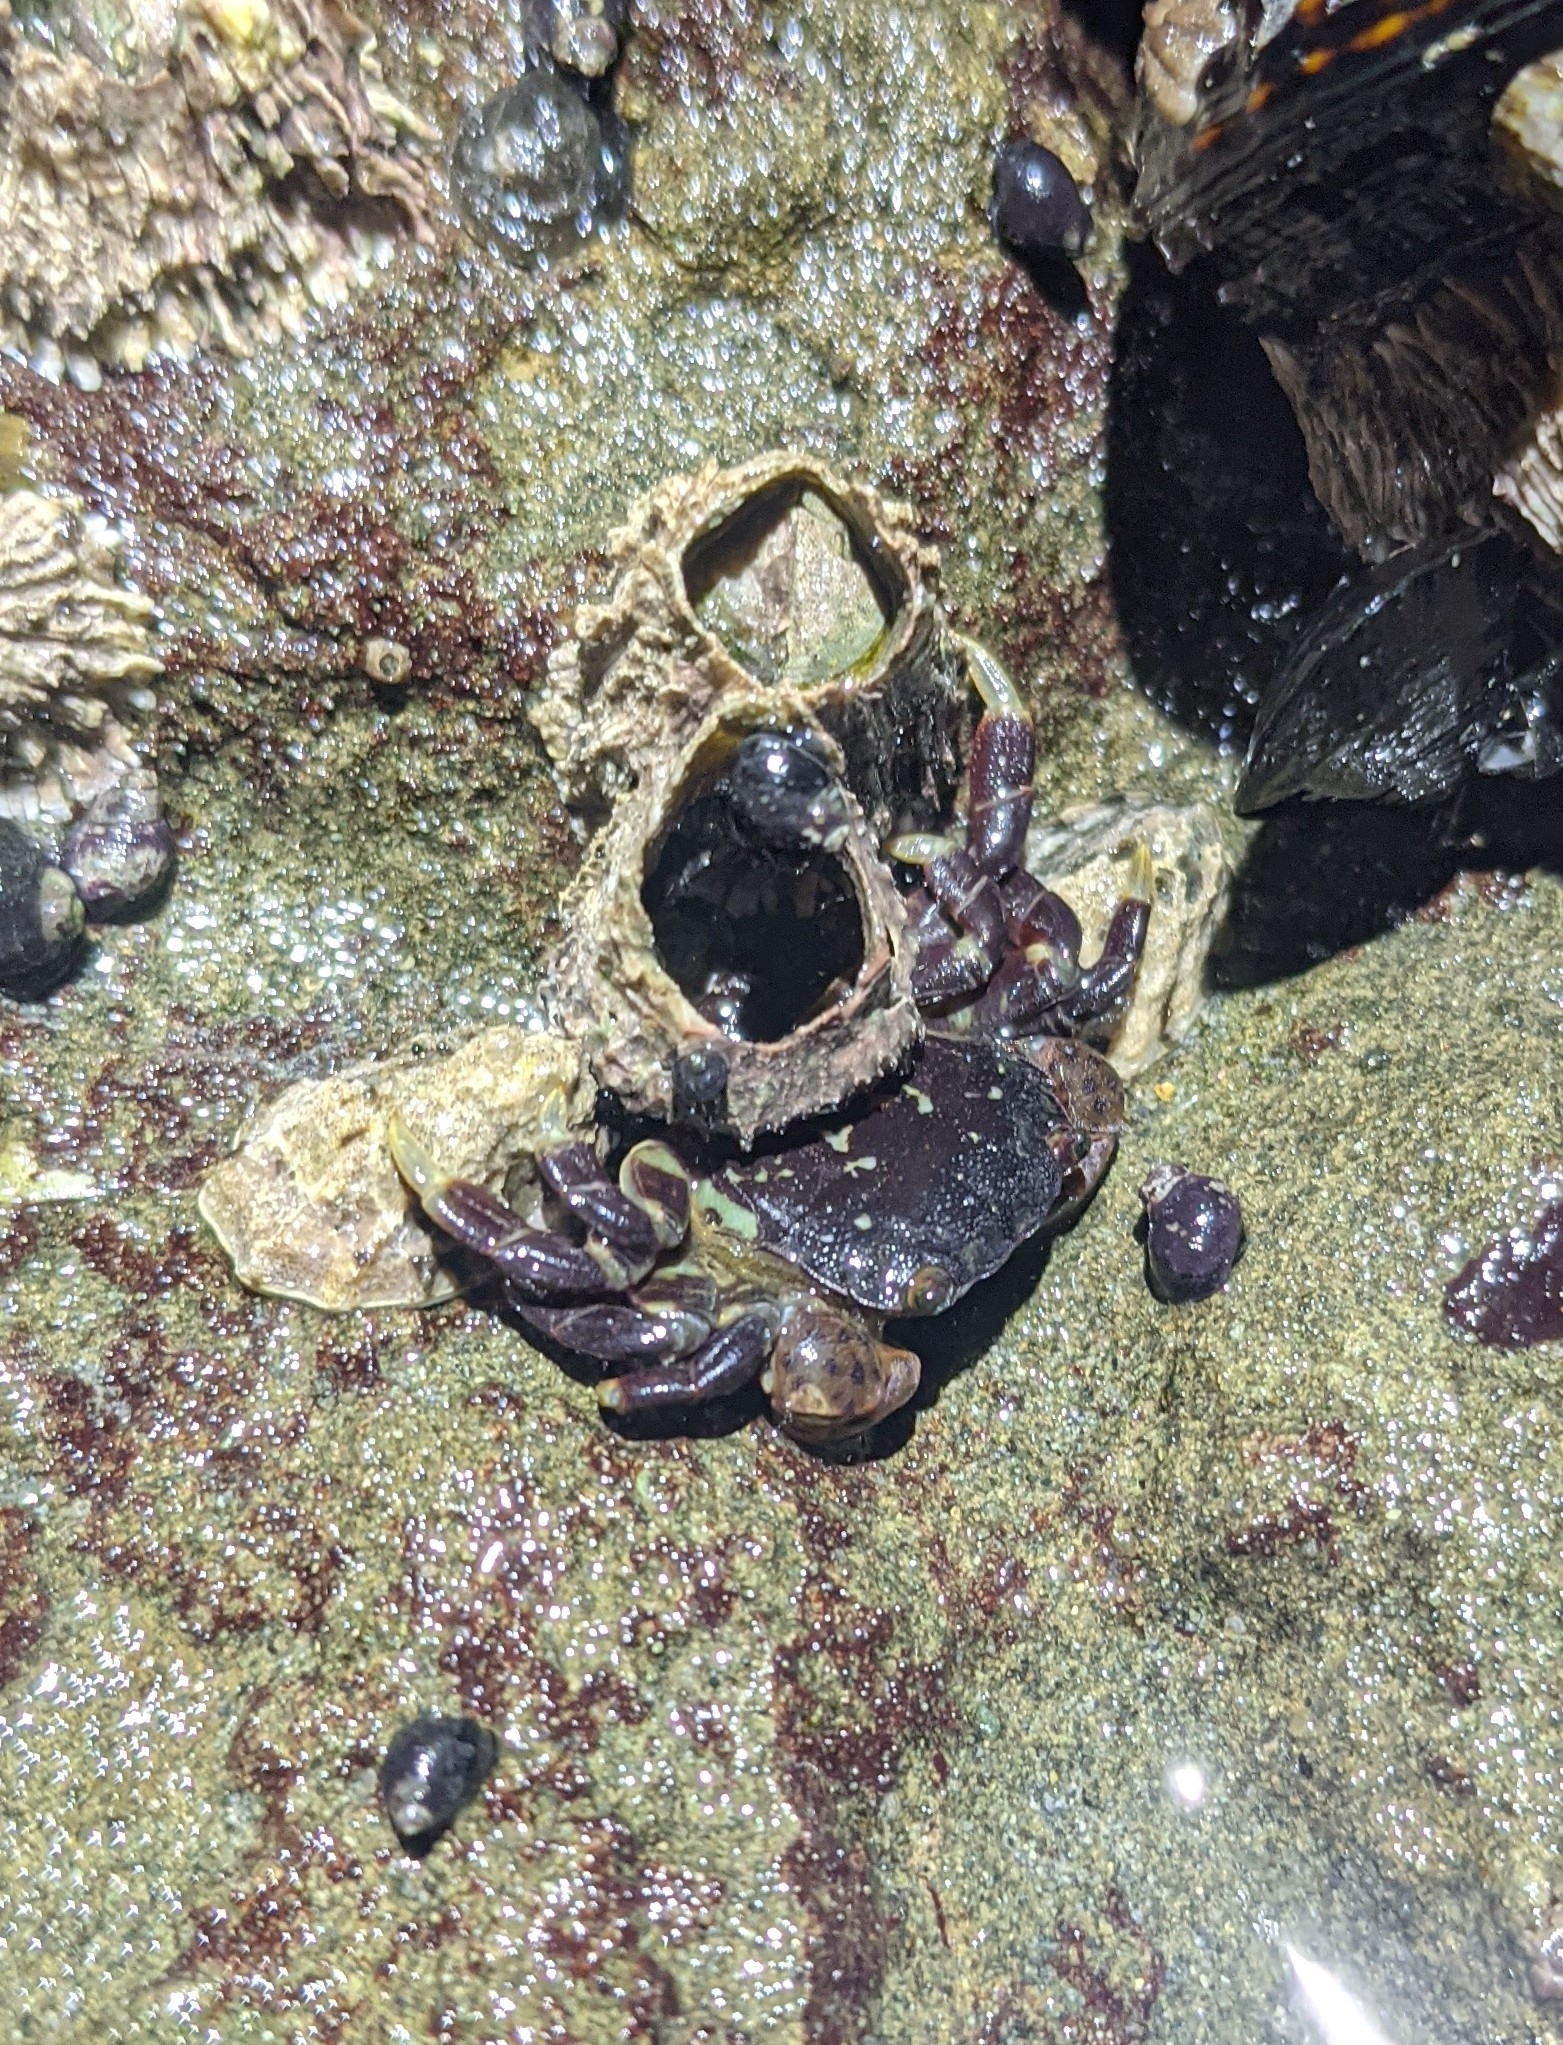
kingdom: Animalia
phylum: Arthropoda
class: Malacostraca
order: Decapoda
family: Varunidae
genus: Hemigrapsus
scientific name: Hemigrapsus nudus
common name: Purple shore crab
